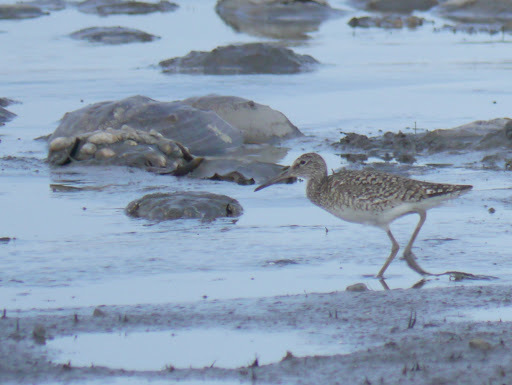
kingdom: Animalia
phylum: Chordata
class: Aves
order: Charadriiformes
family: Scolopacidae
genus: Tringa
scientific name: Tringa semipalmata
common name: Willet
